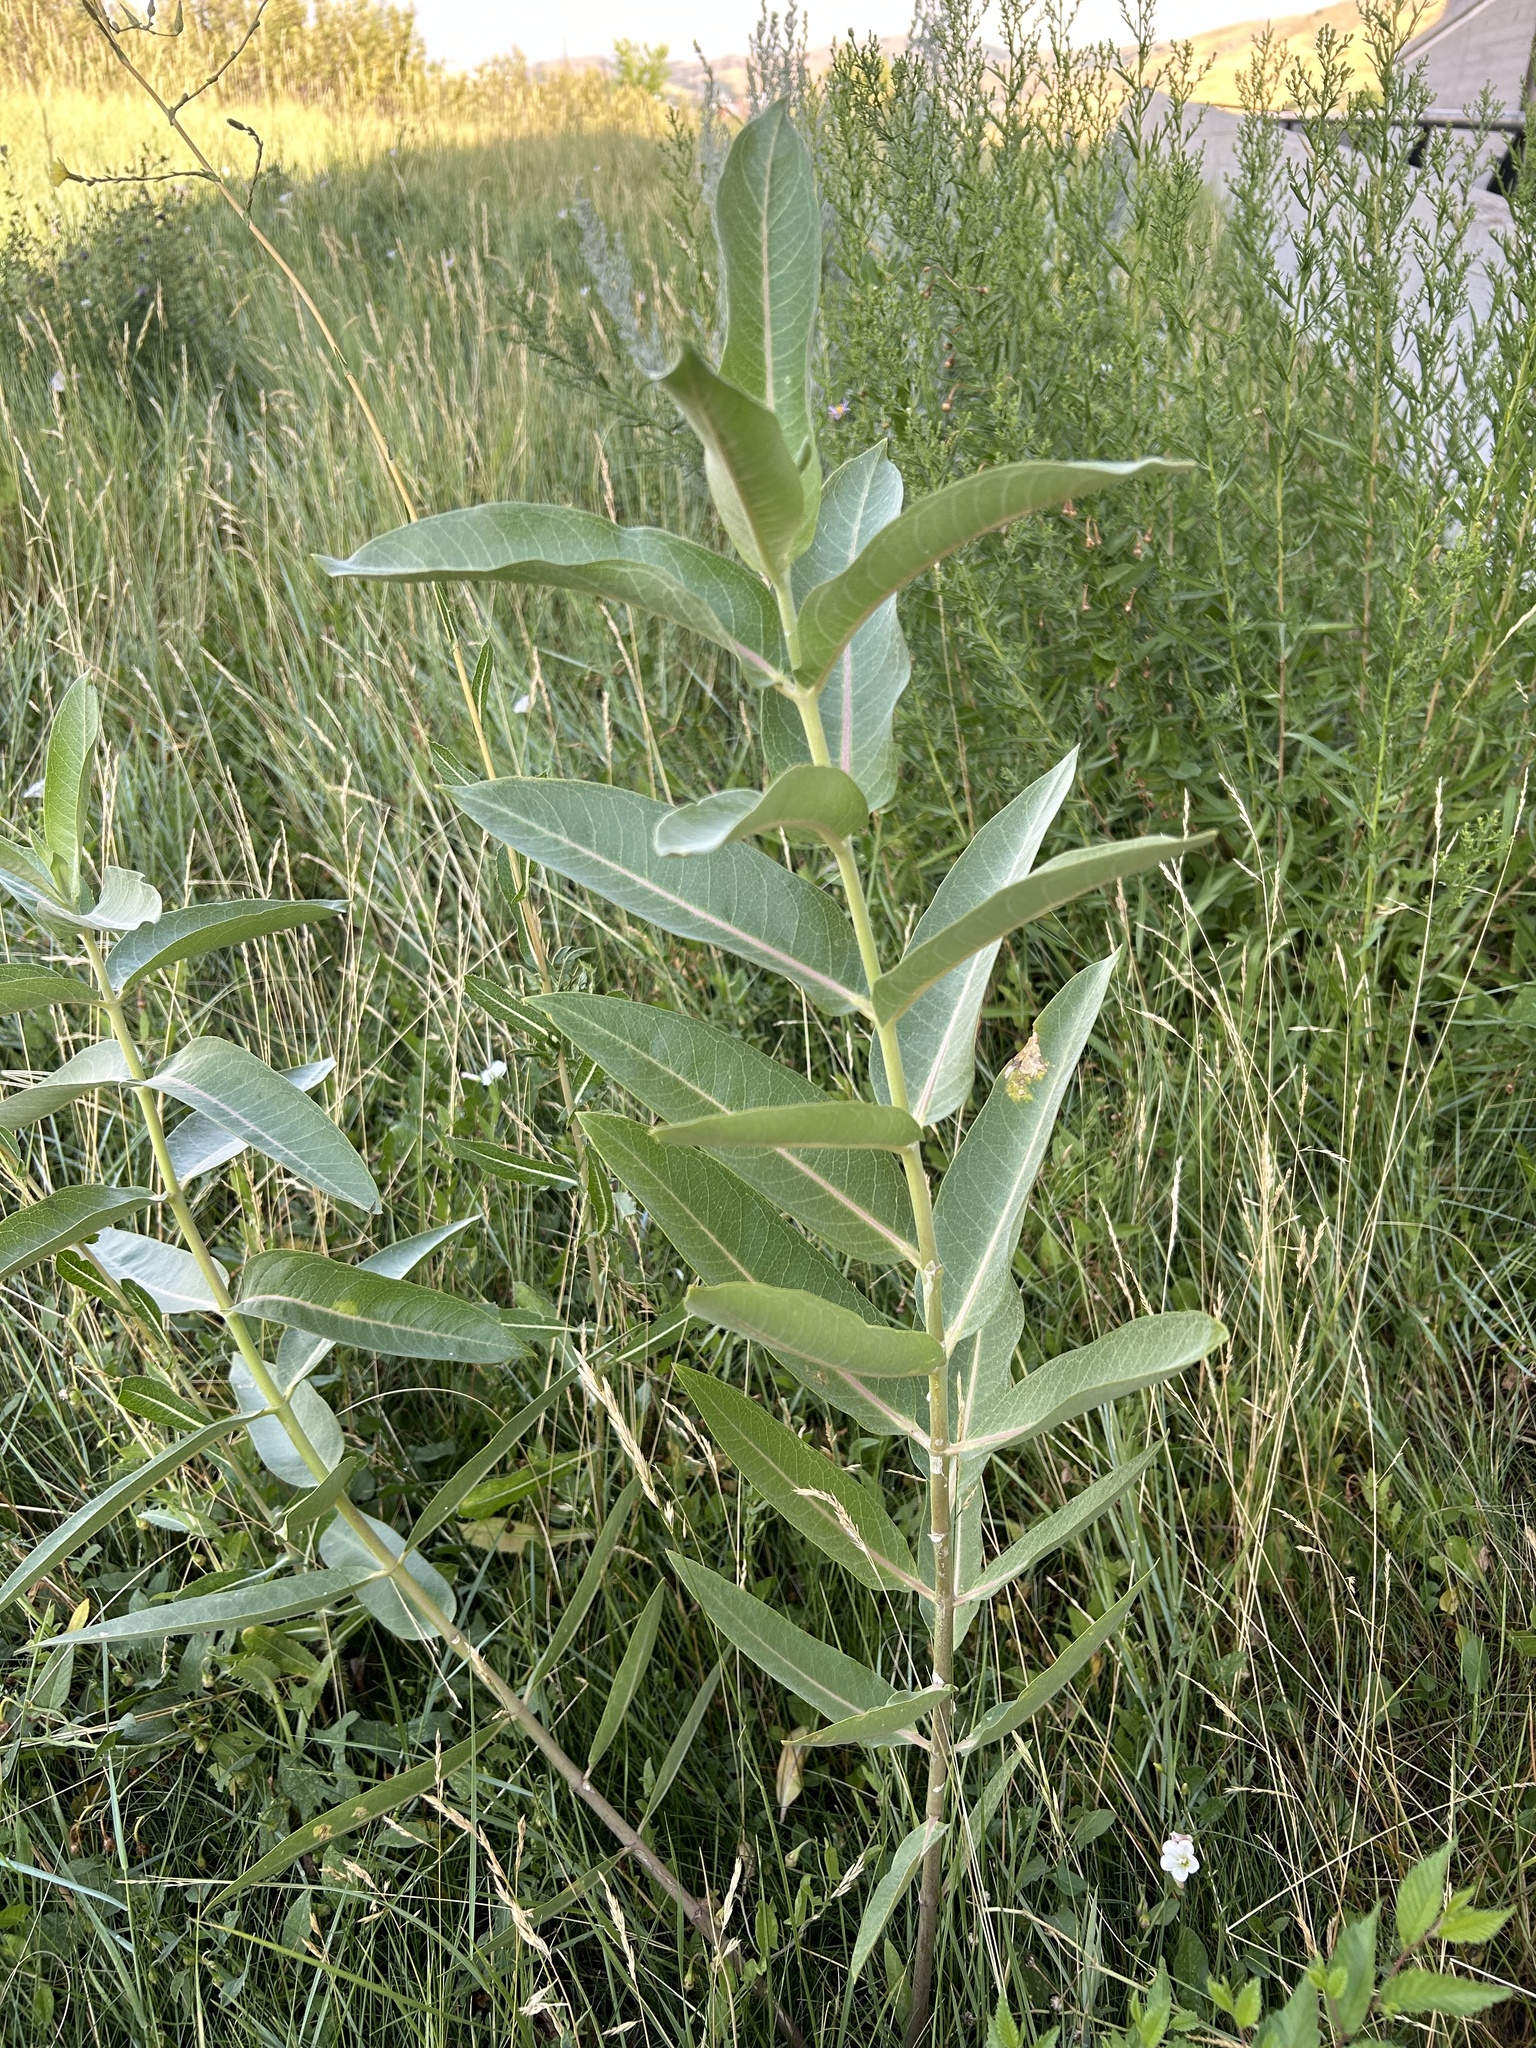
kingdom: Plantae
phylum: Tracheophyta
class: Magnoliopsida
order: Gentianales
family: Apocynaceae
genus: Asclepias
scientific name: Asclepias speciosa
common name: Showy milkweed
